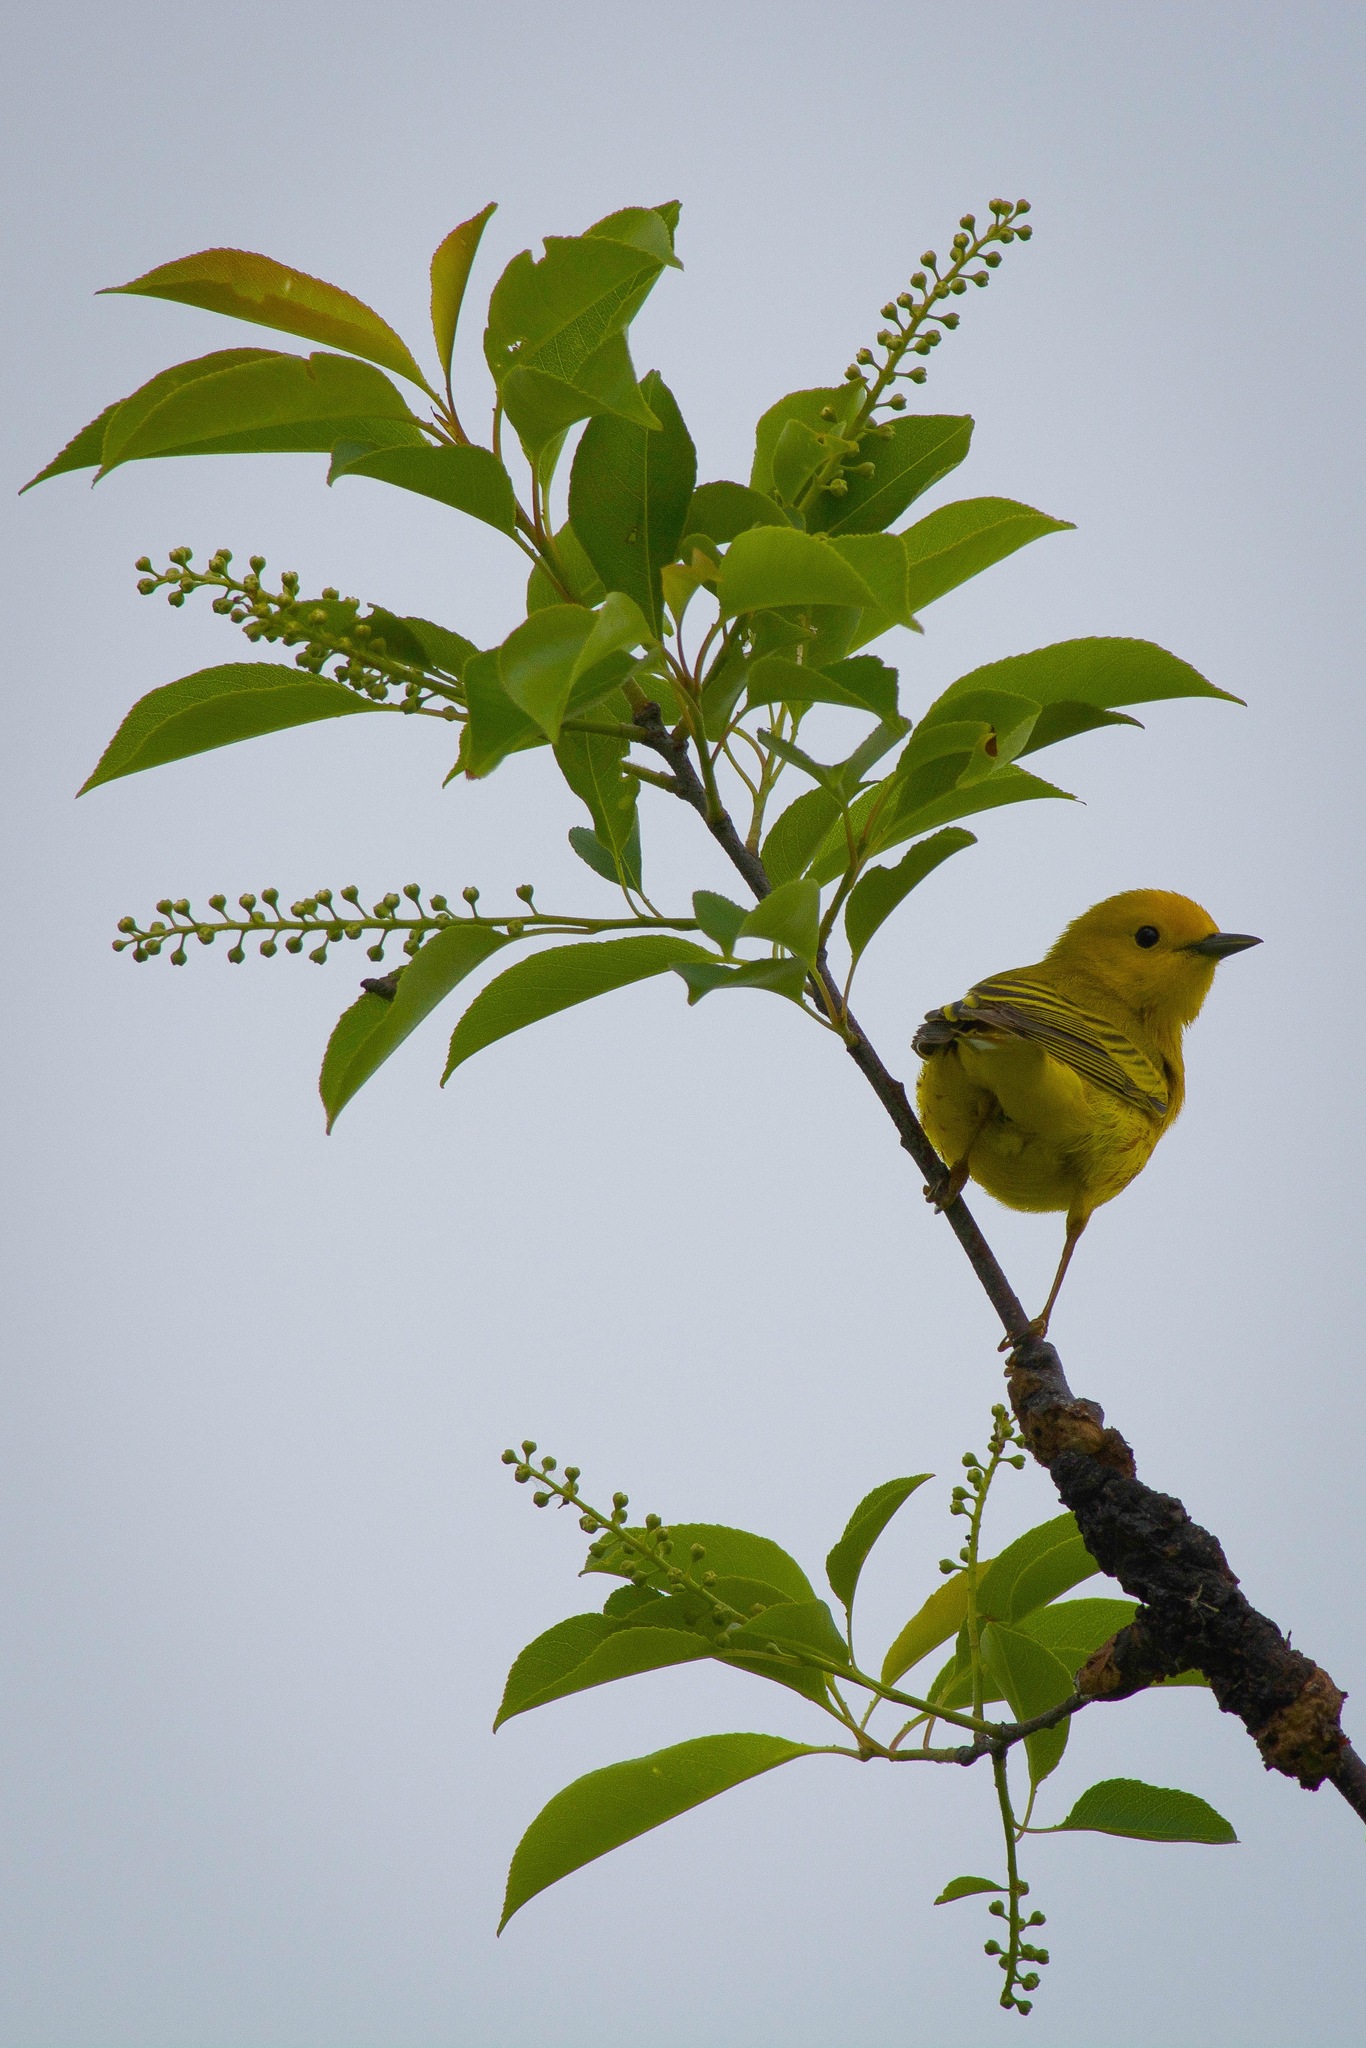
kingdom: Animalia
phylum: Chordata
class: Aves
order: Passeriformes
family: Parulidae
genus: Setophaga
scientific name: Setophaga petechia
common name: Yellow warbler
